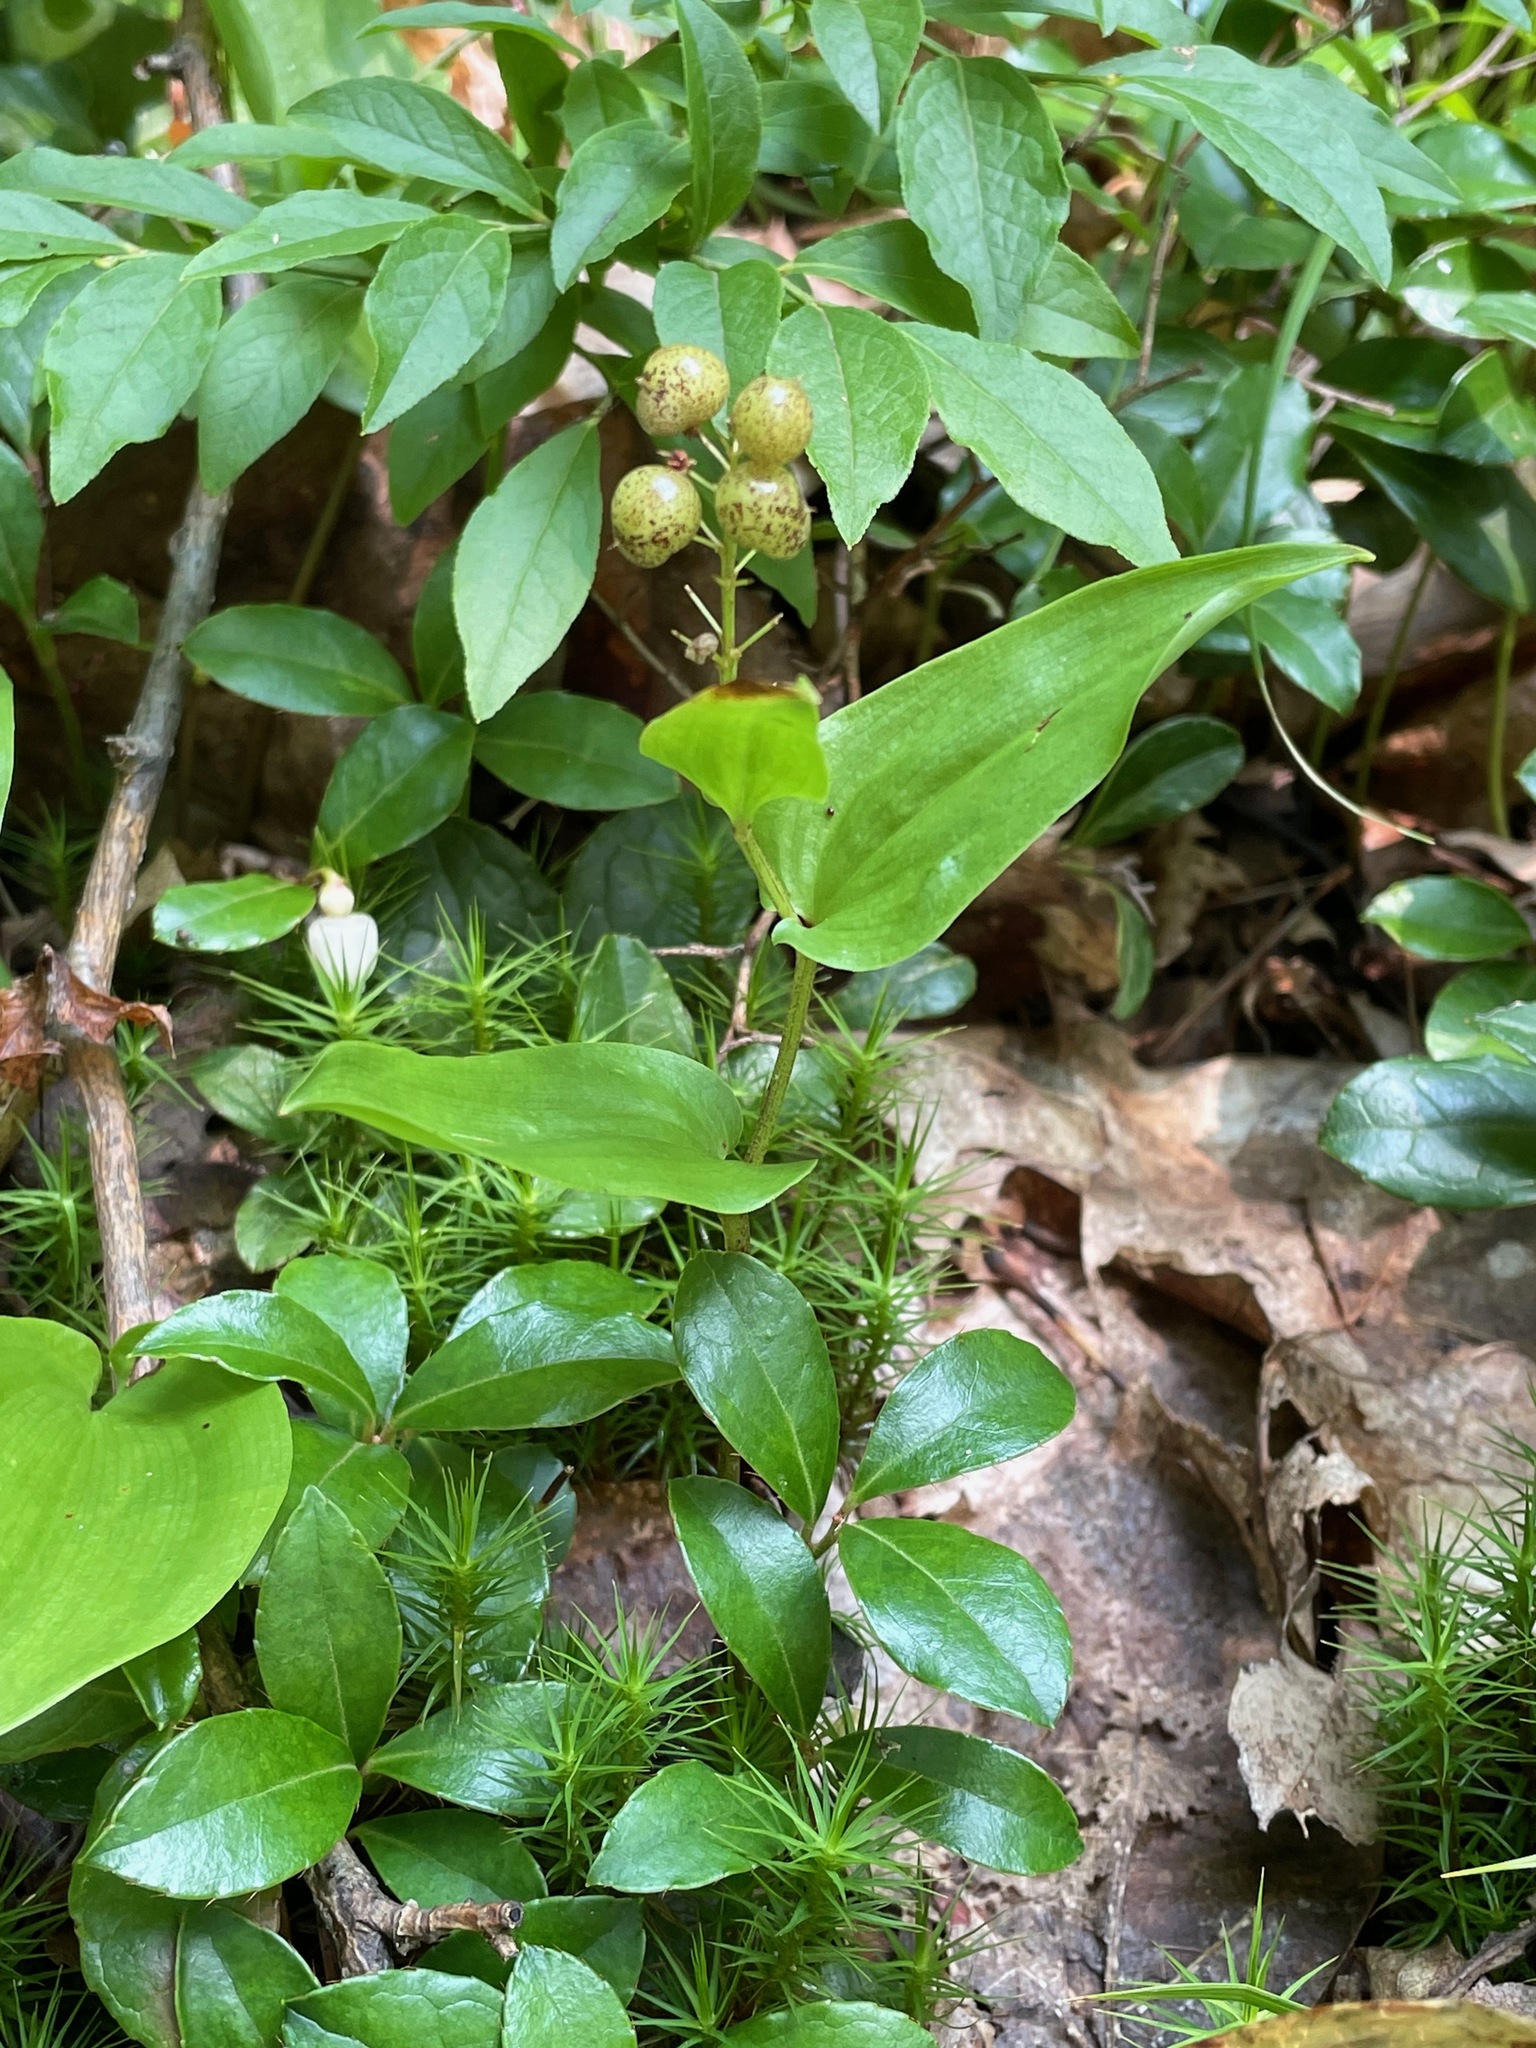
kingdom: Plantae
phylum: Tracheophyta
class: Liliopsida
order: Asparagales
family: Asparagaceae
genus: Maianthemum
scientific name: Maianthemum canadense
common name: False lily-of-the-valley
